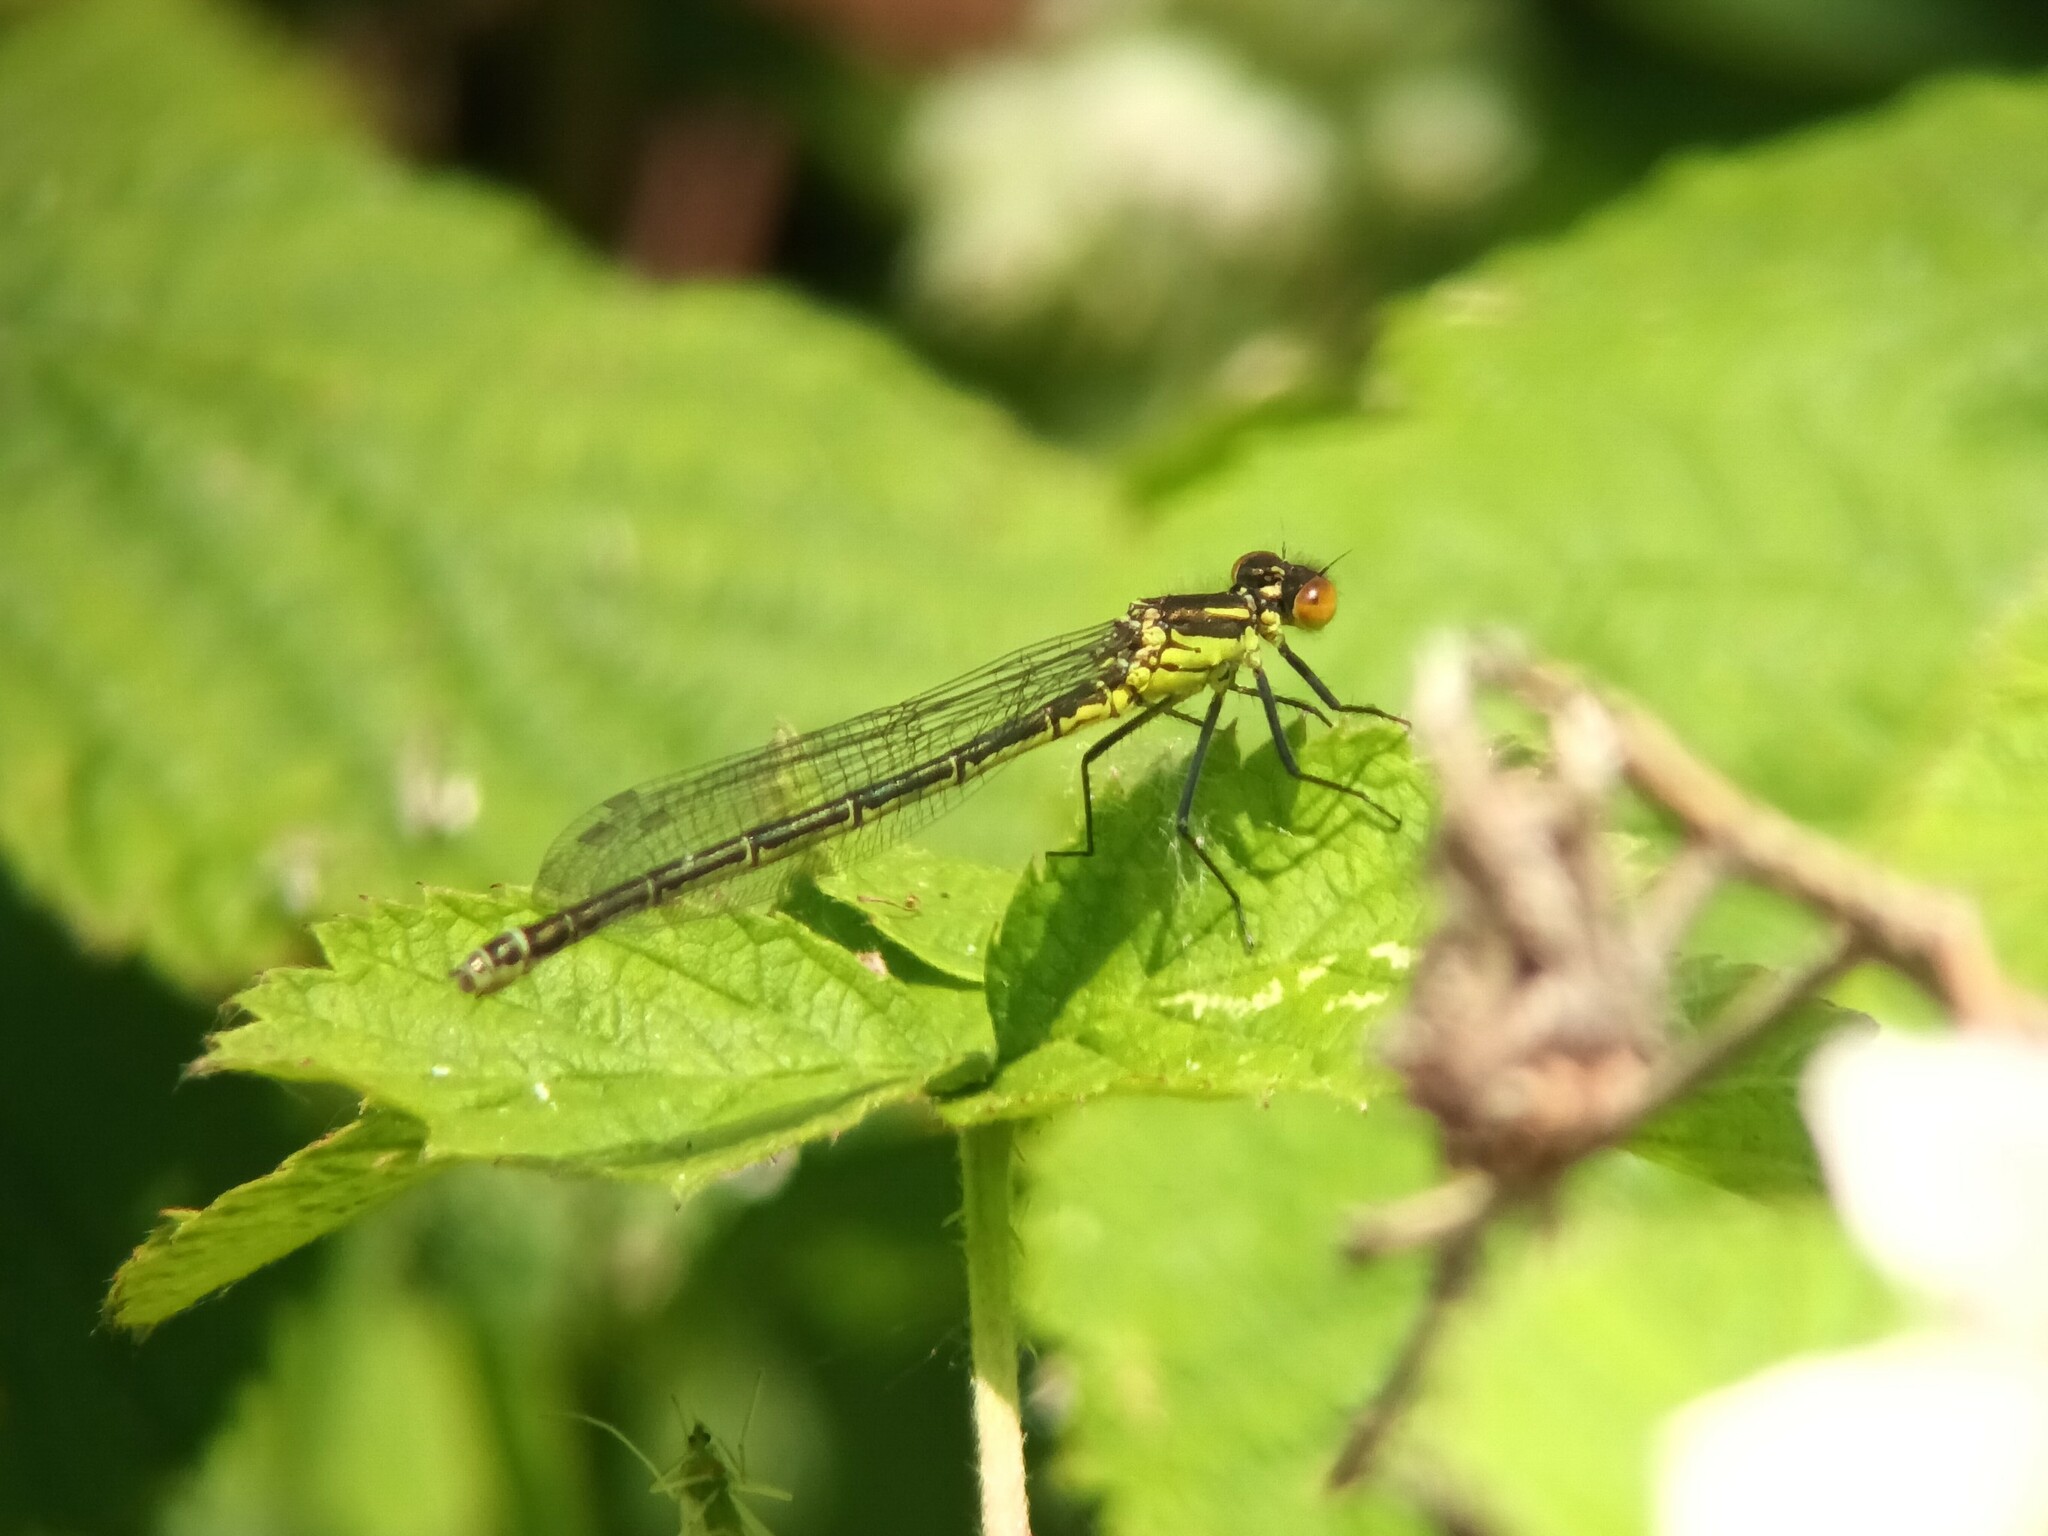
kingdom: Animalia
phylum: Arthropoda
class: Insecta
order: Odonata
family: Coenagrionidae
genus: Erythromma
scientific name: Erythromma najas
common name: Red-eyed damselfly
